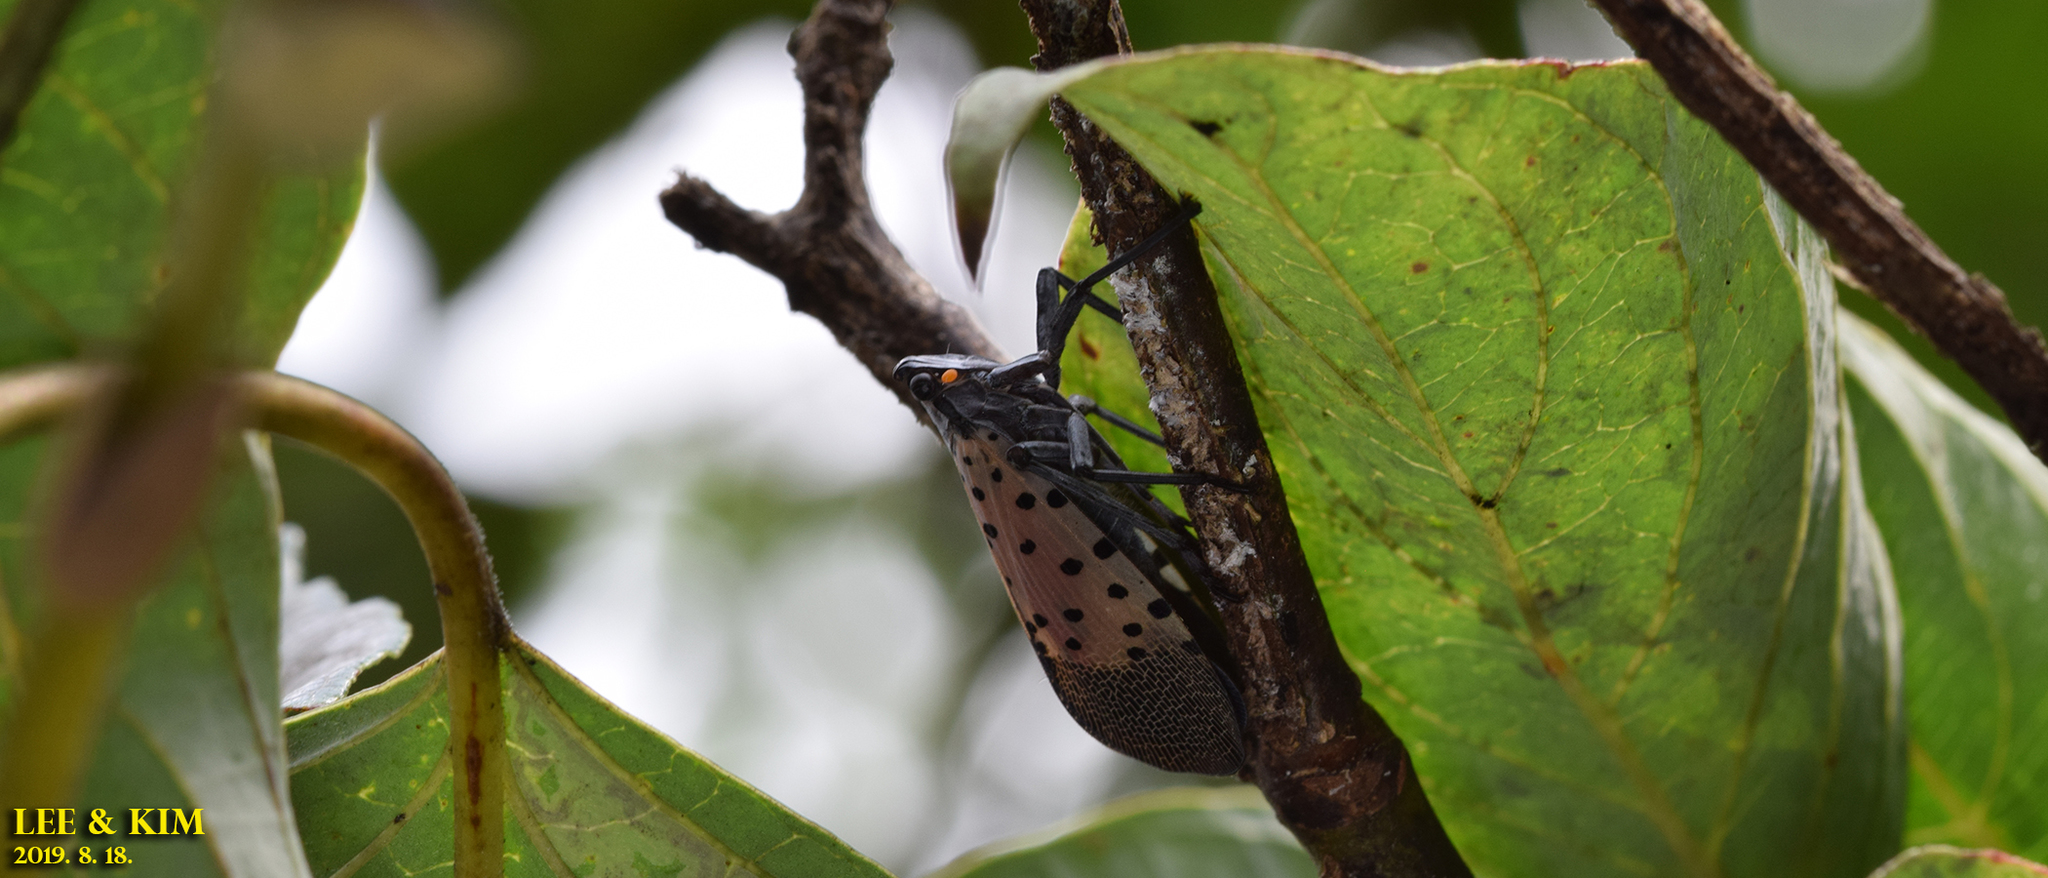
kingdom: Animalia
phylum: Arthropoda
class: Insecta
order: Hemiptera
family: Fulgoridae
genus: Lycorma
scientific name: Lycorma delicatula
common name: Spotted lanternfly
